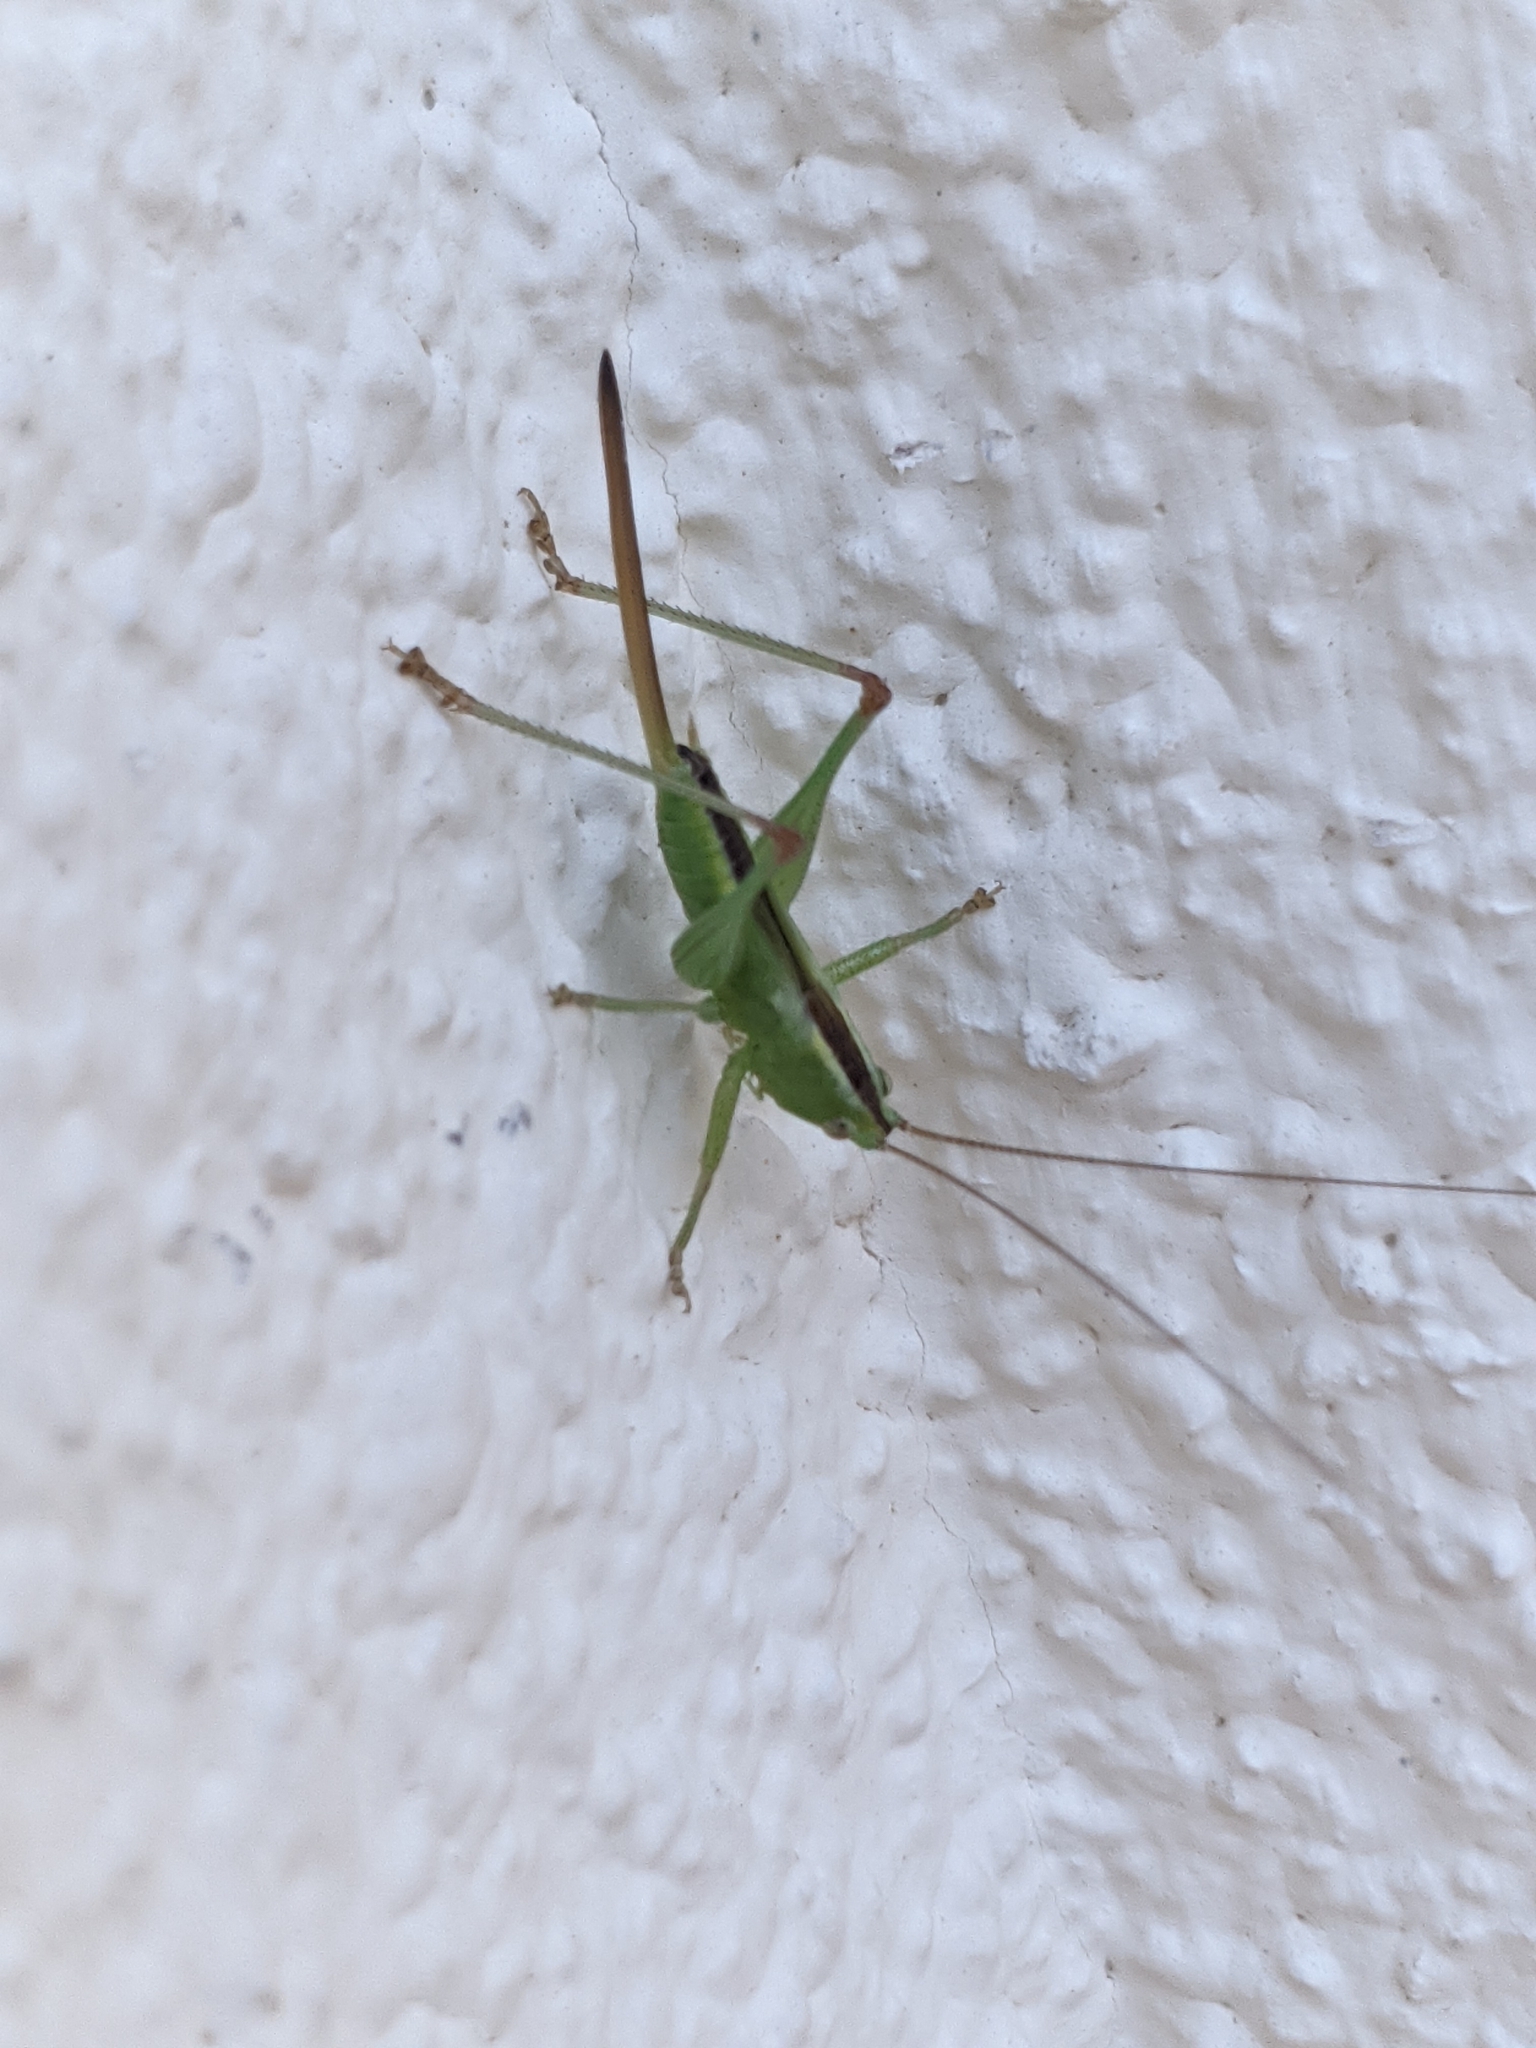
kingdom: Animalia
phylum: Arthropoda
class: Insecta
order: Orthoptera
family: Tettigoniidae
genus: Conocephalus
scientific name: Conocephalus fuscus
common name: Long-winged conehead
